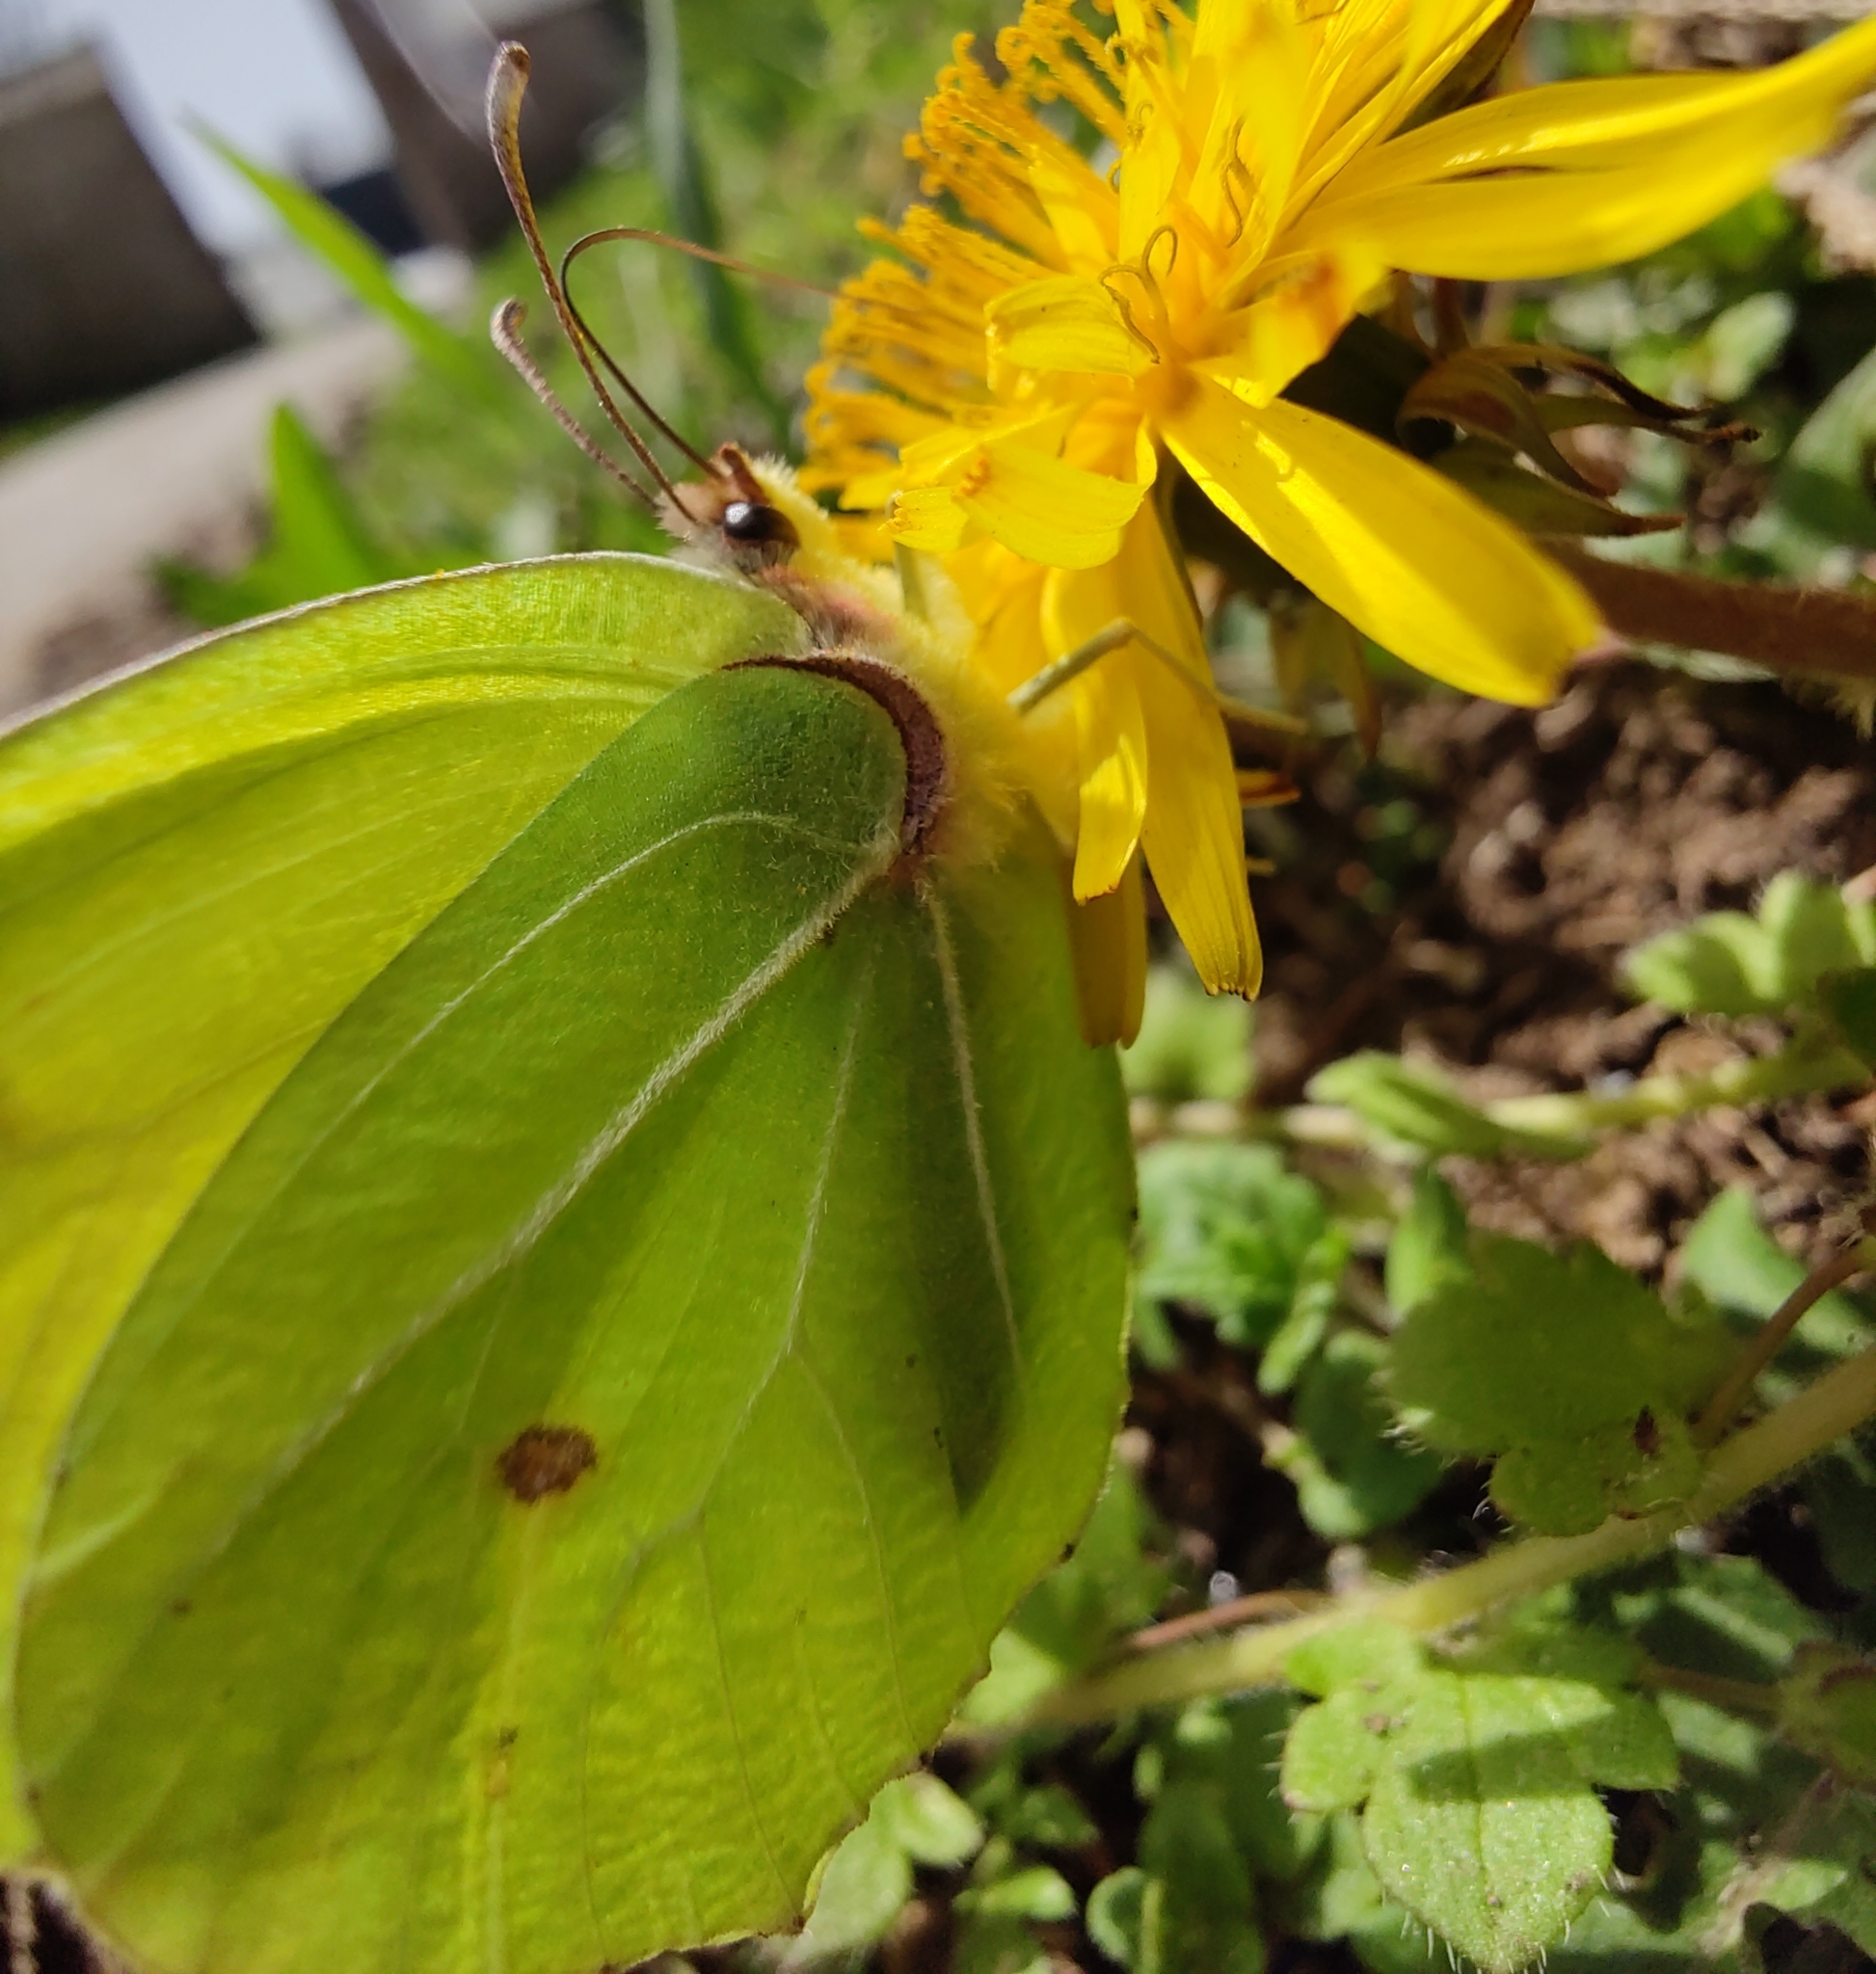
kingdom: Animalia
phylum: Arthropoda
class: Insecta
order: Lepidoptera
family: Pieridae
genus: Gonepteryx
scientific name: Gonepteryx rhamni
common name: Brimstone
